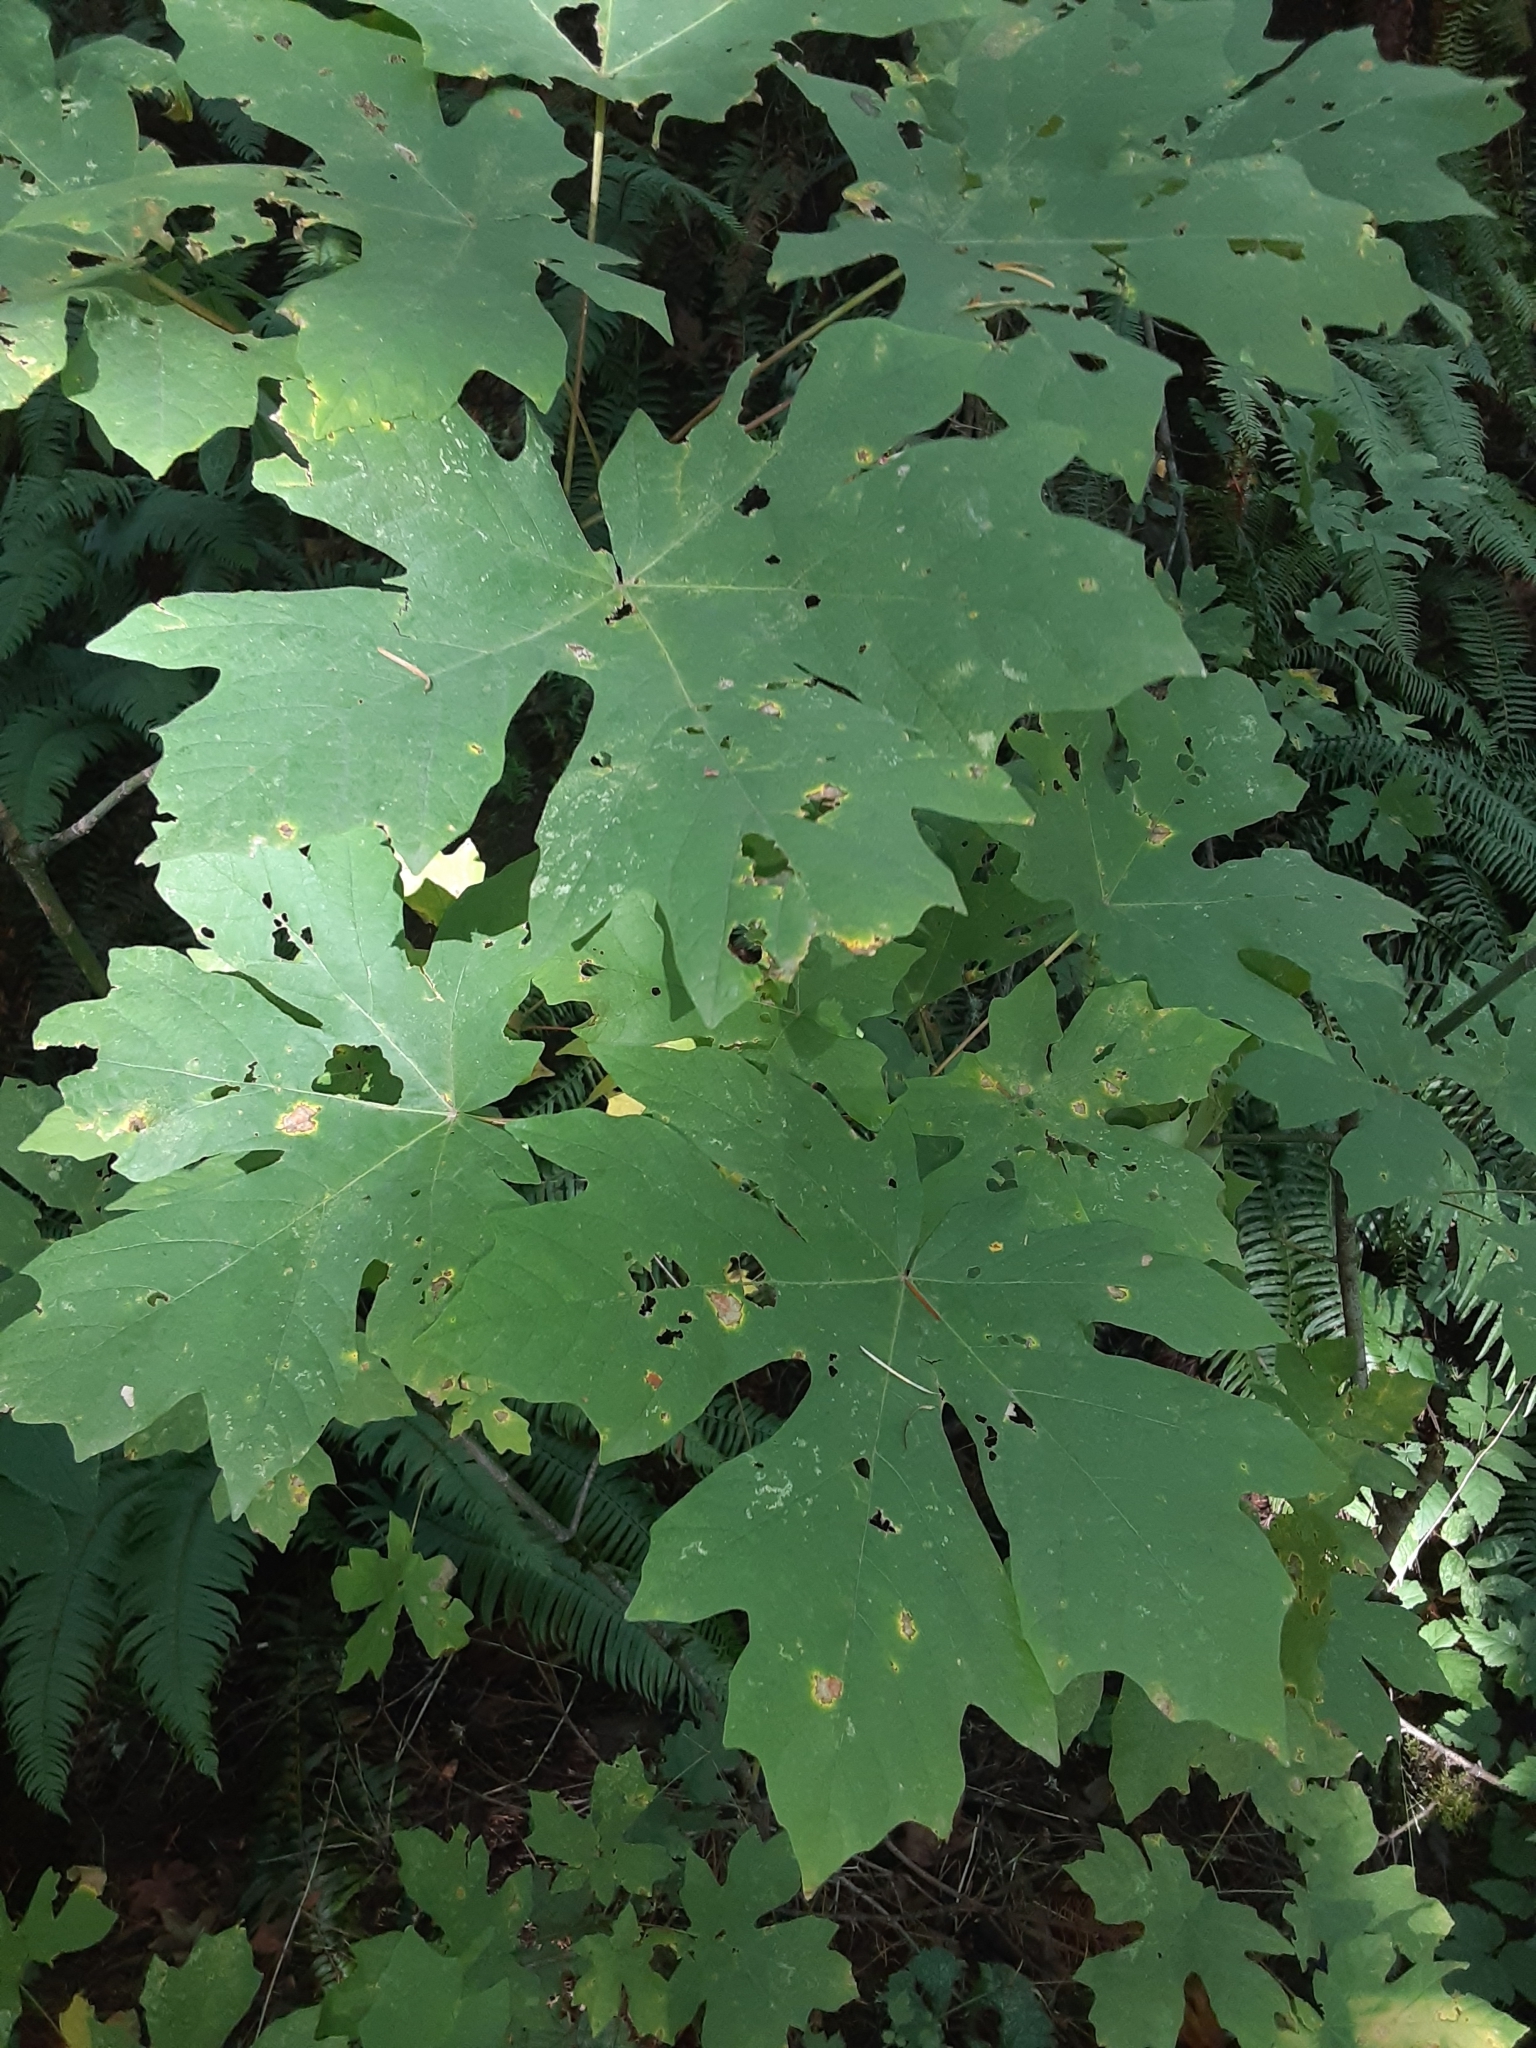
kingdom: Plantae
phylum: Tracheophyta
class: Magnoliopsida
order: Sapindales
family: Sapindaceae
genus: Acer
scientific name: Acer macrophyllum
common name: Oregon maple
